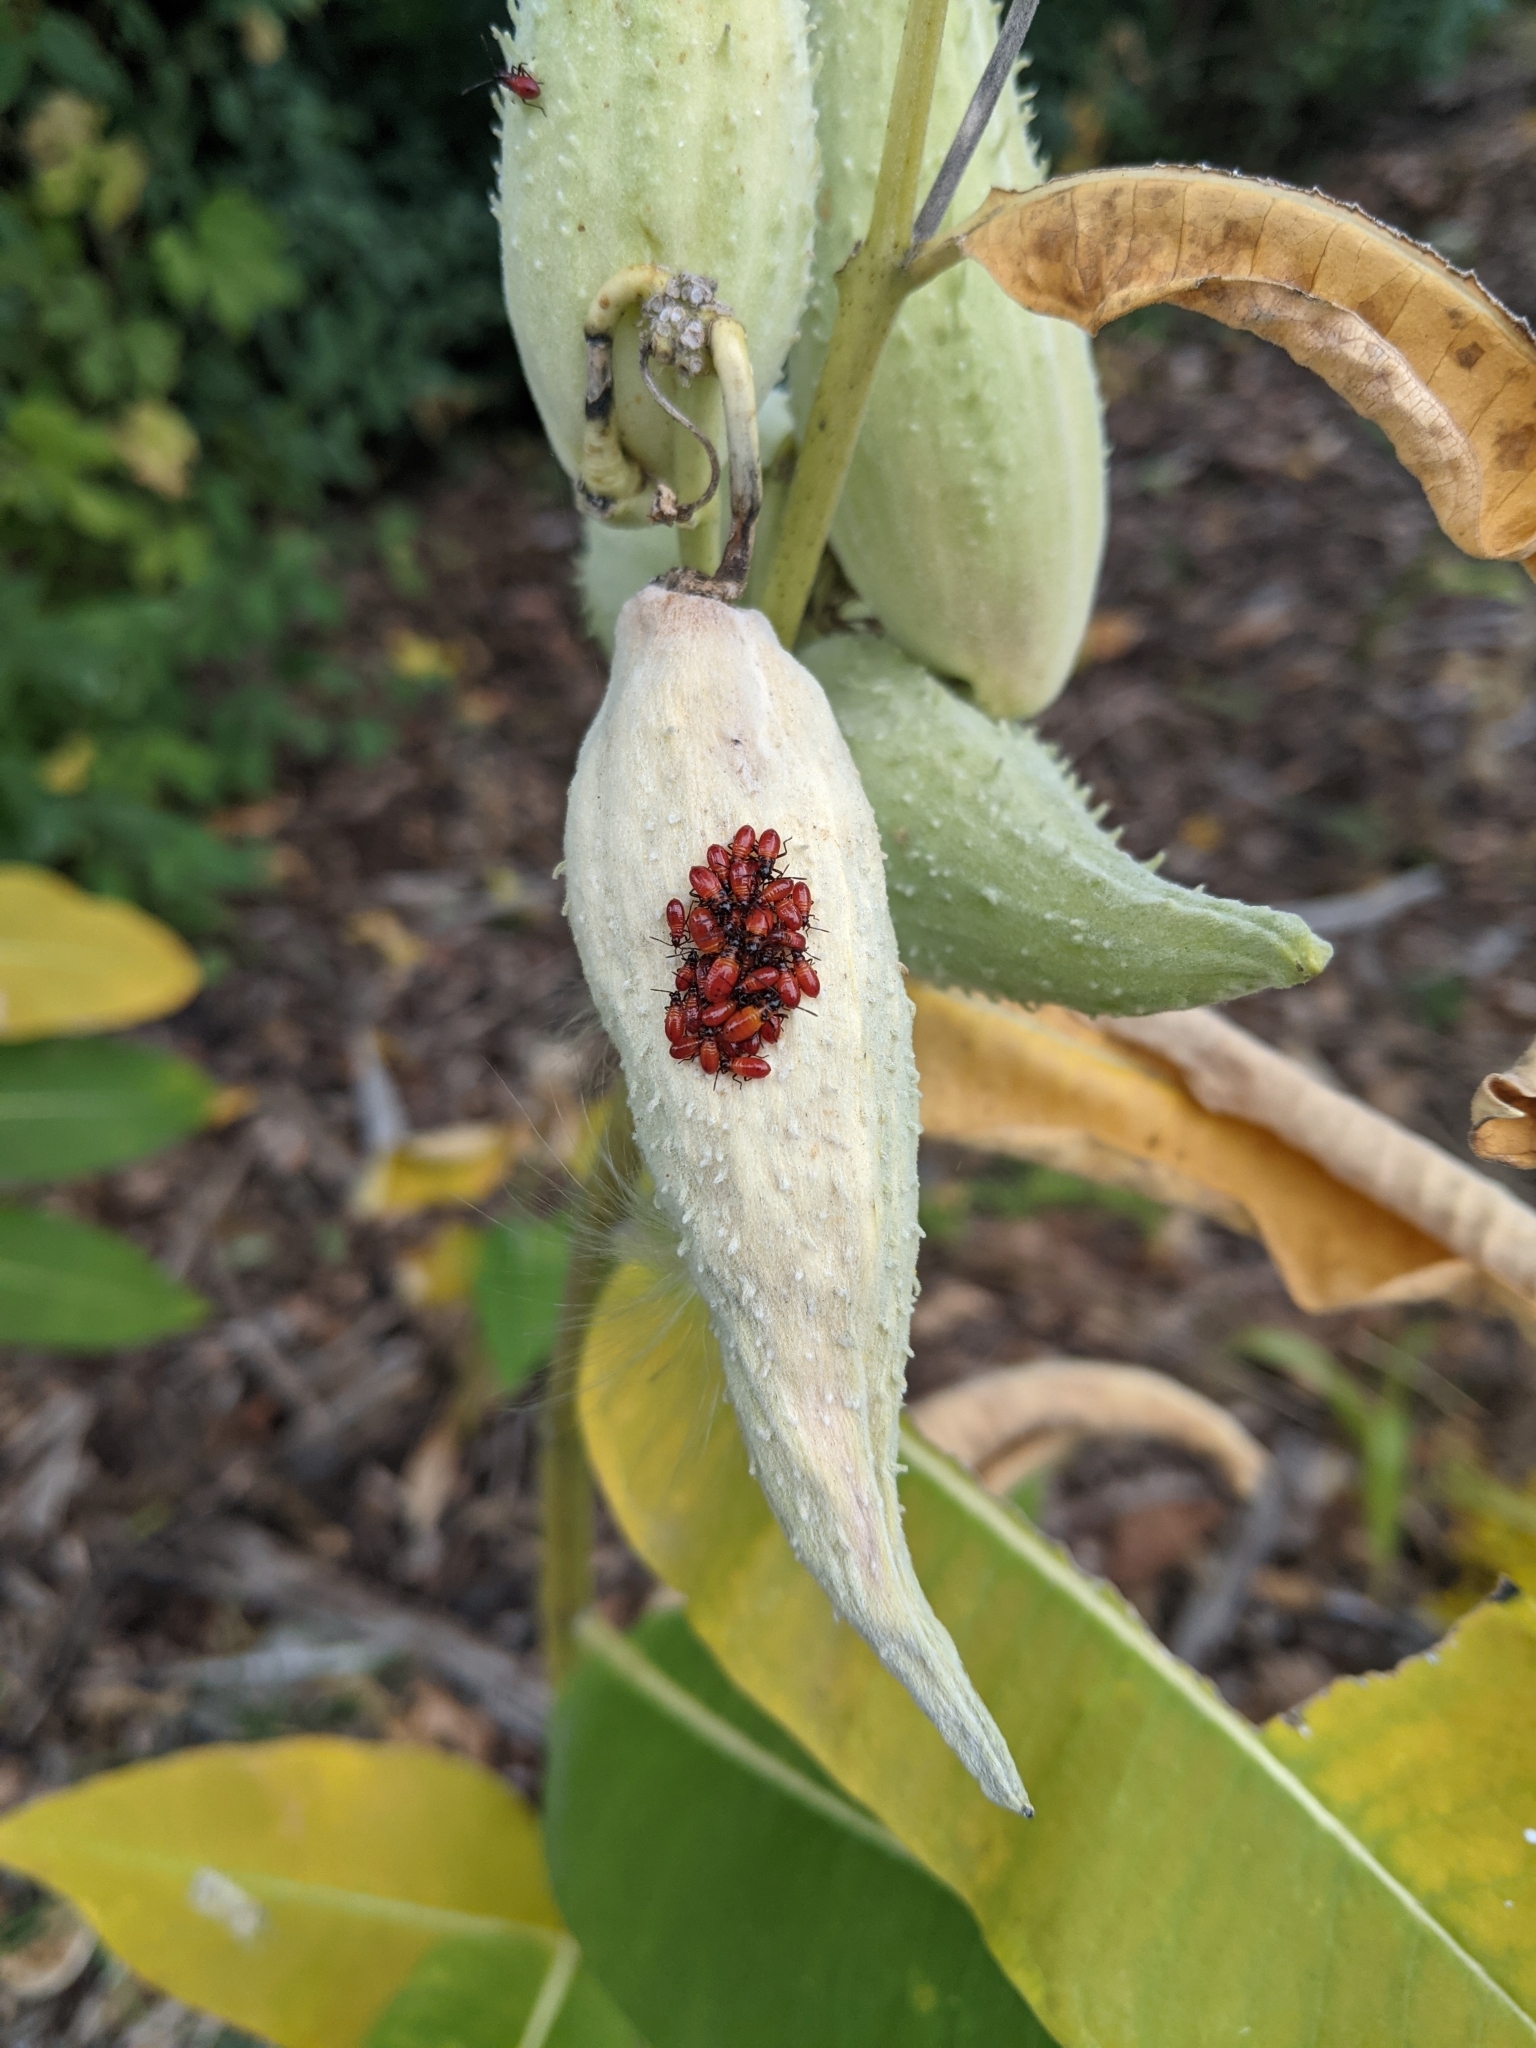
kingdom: Animalia
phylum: Arthropoda
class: Insecta
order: Hemiptera
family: Lygaeidae
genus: Oncopeltus
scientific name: Oncopeltus fasciatus
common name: Large milkweed bug
